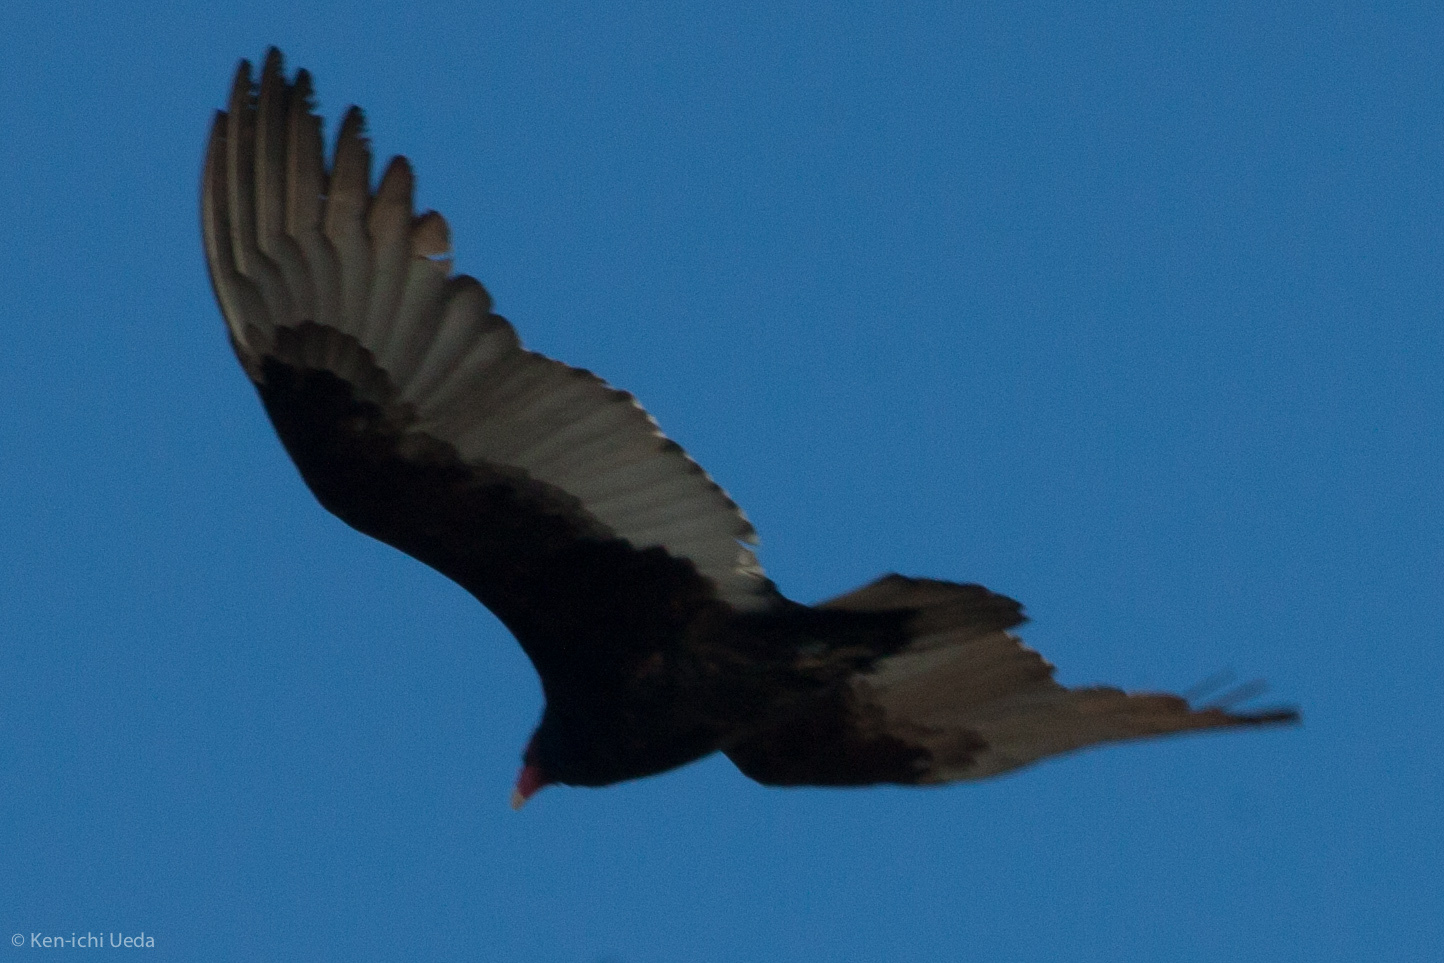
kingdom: Animalia
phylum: Chordata
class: Aves
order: Accipitriformes
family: Cathartidae
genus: Cathartes
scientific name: Cathartes aura
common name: Turkey vulture
